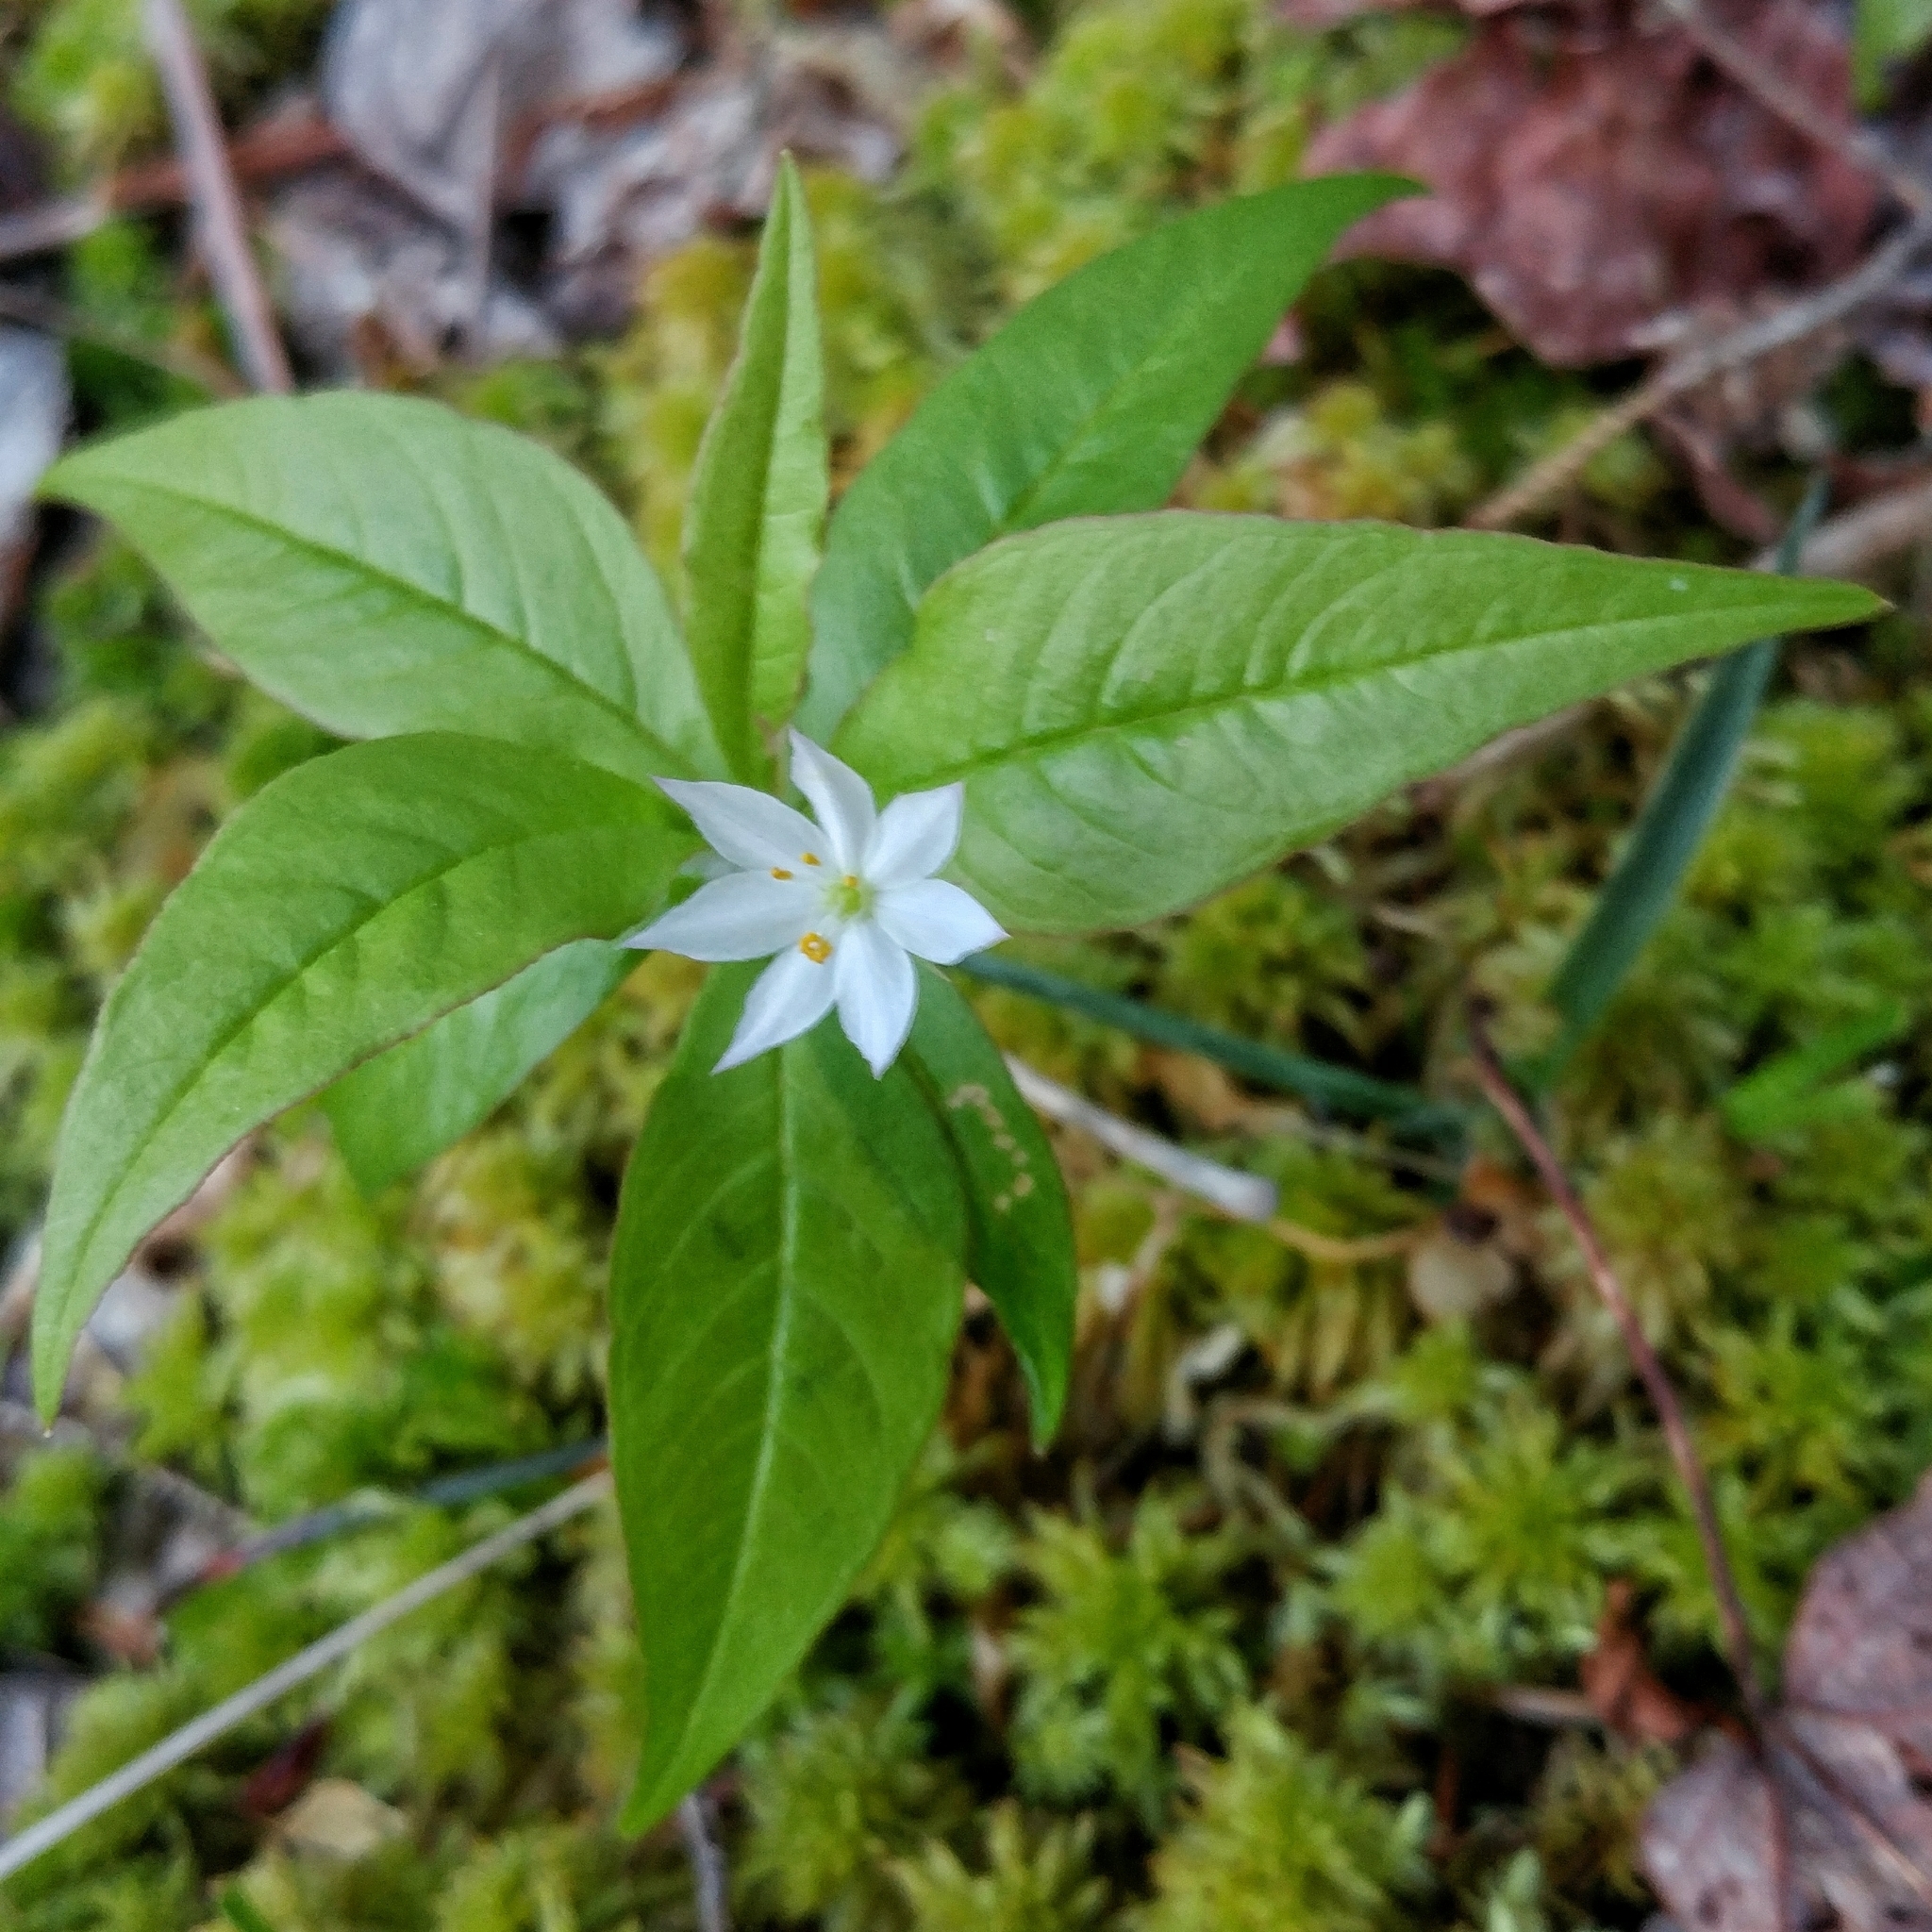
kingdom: Plantae
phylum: Tracheophyta
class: Magnoliopsida
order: Ericales
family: Primulaceae
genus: Lysimachia
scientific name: Lysimachia borealis
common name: American starflower
